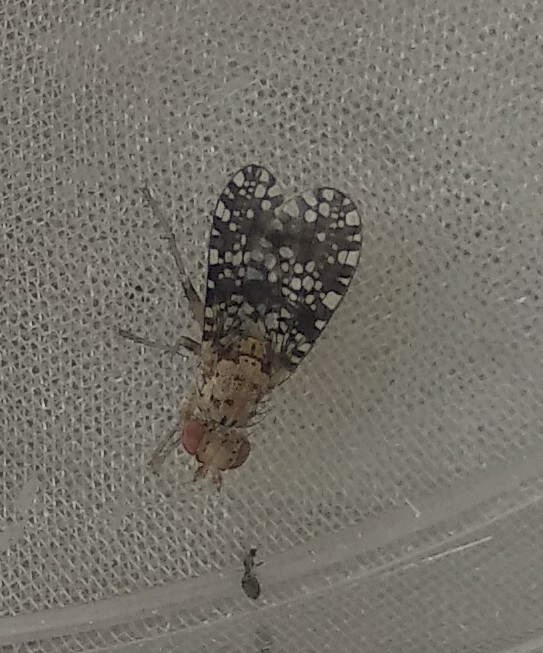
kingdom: Animalia
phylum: Arthropoda
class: Insecta
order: Diptera
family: Sciomyzidae
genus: Trypetoptera
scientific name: Trypetoptera punctulata
